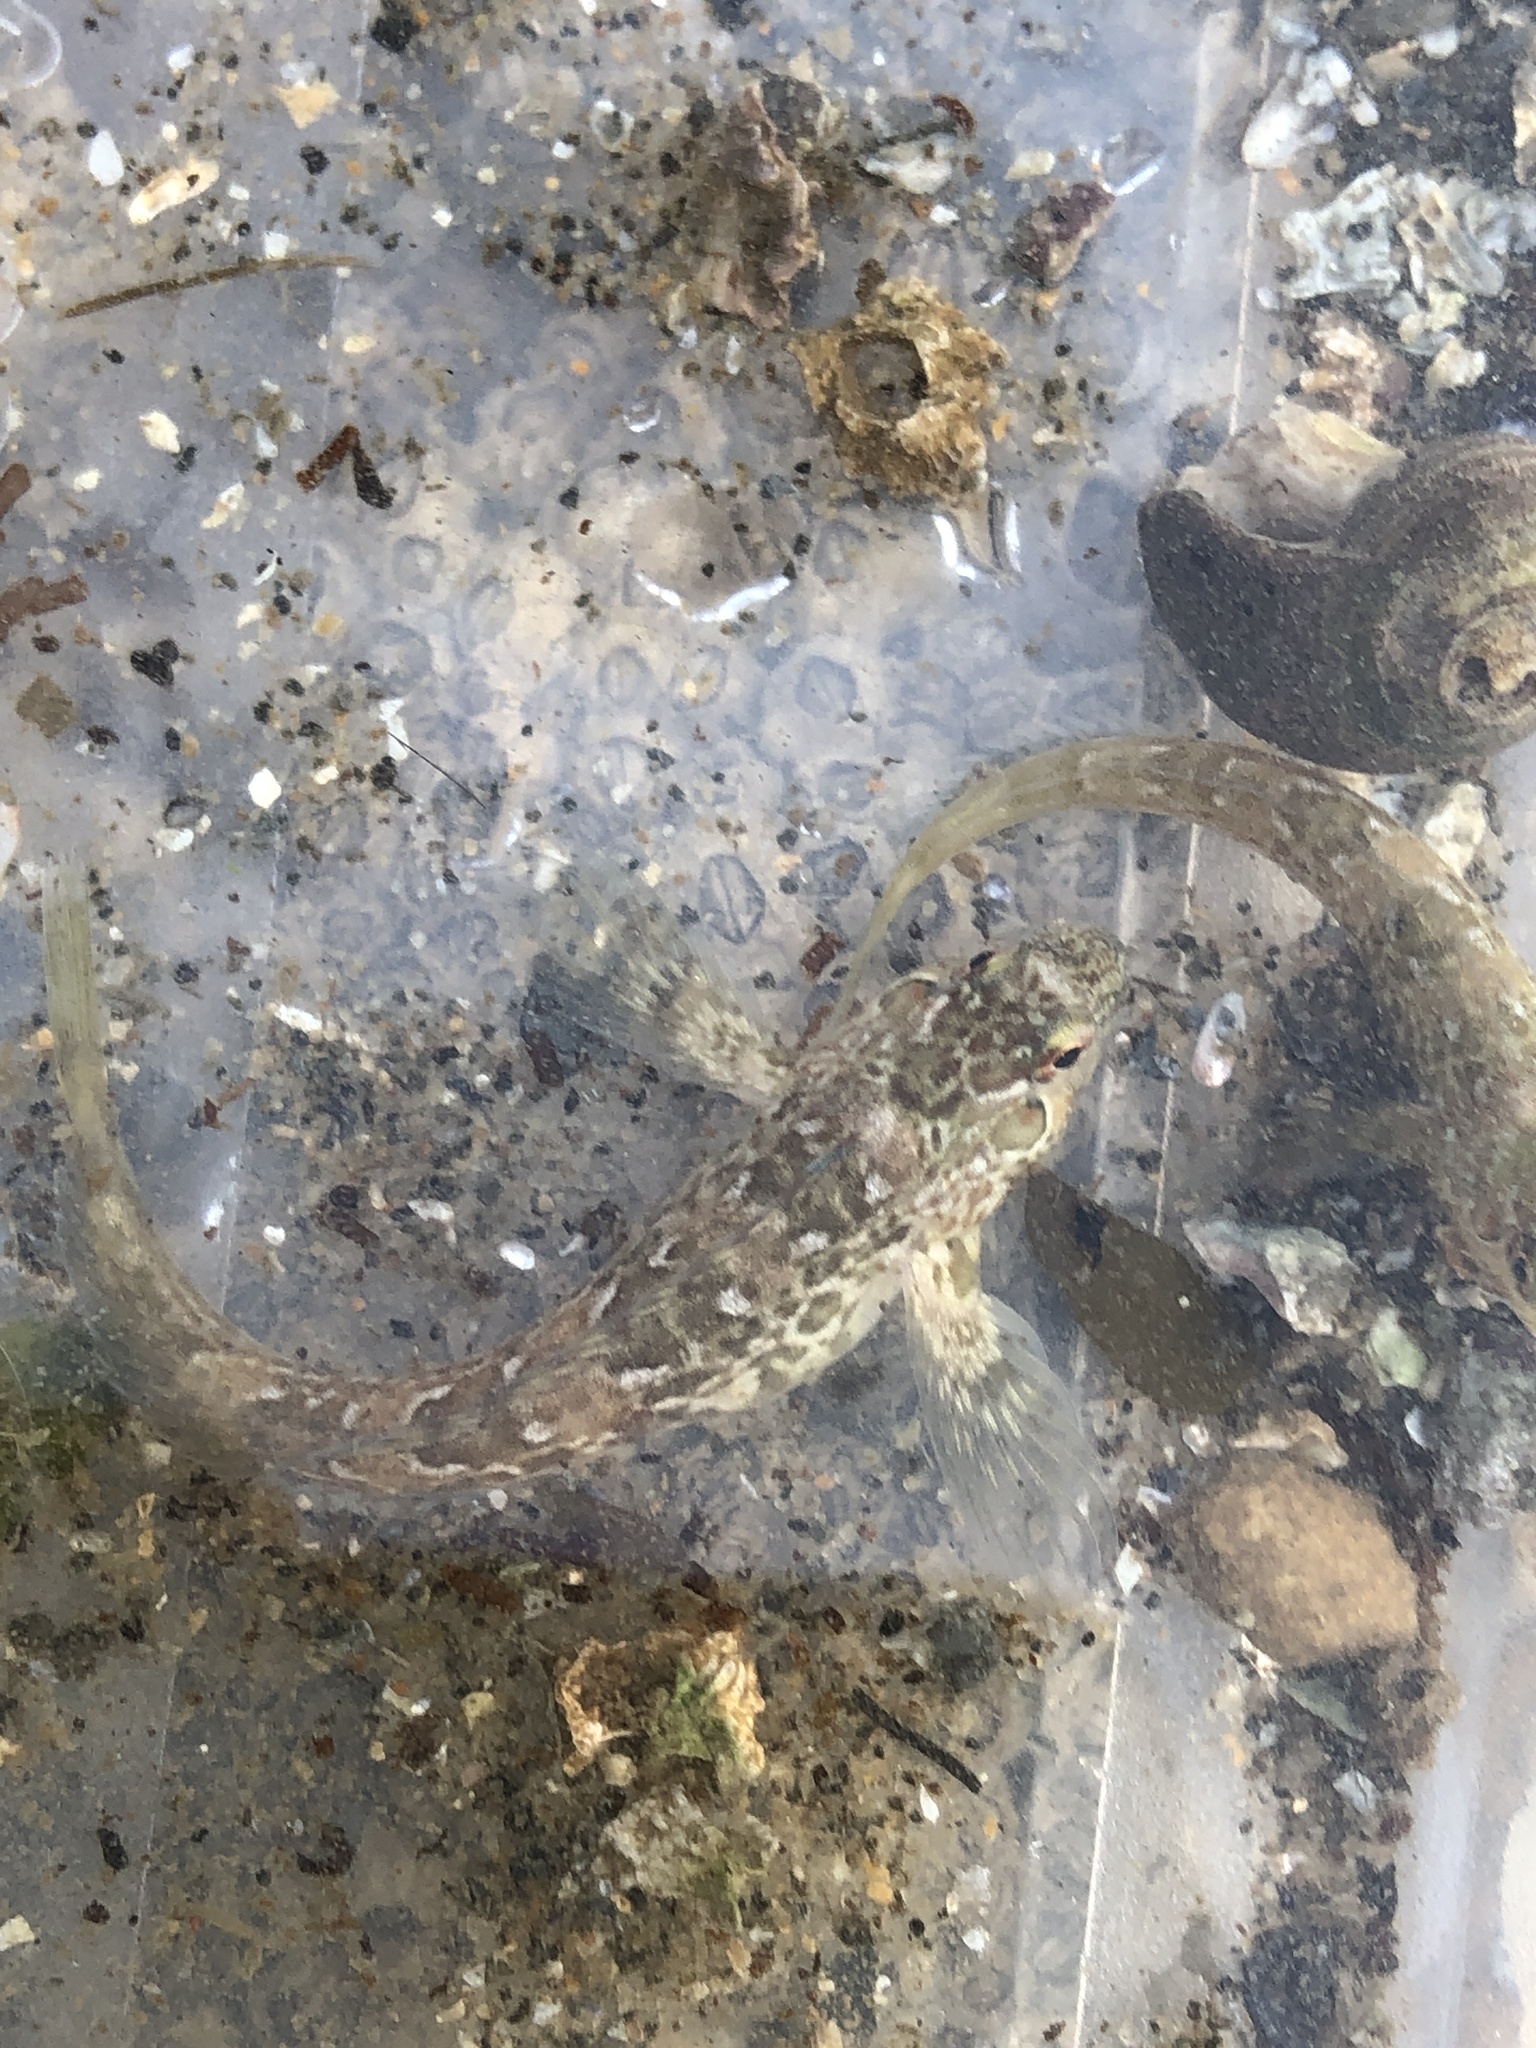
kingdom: Animalia
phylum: Chordata
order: Perciformes
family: Blenniidae
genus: Lipophrys
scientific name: Lipophrys pholis
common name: Shanny
